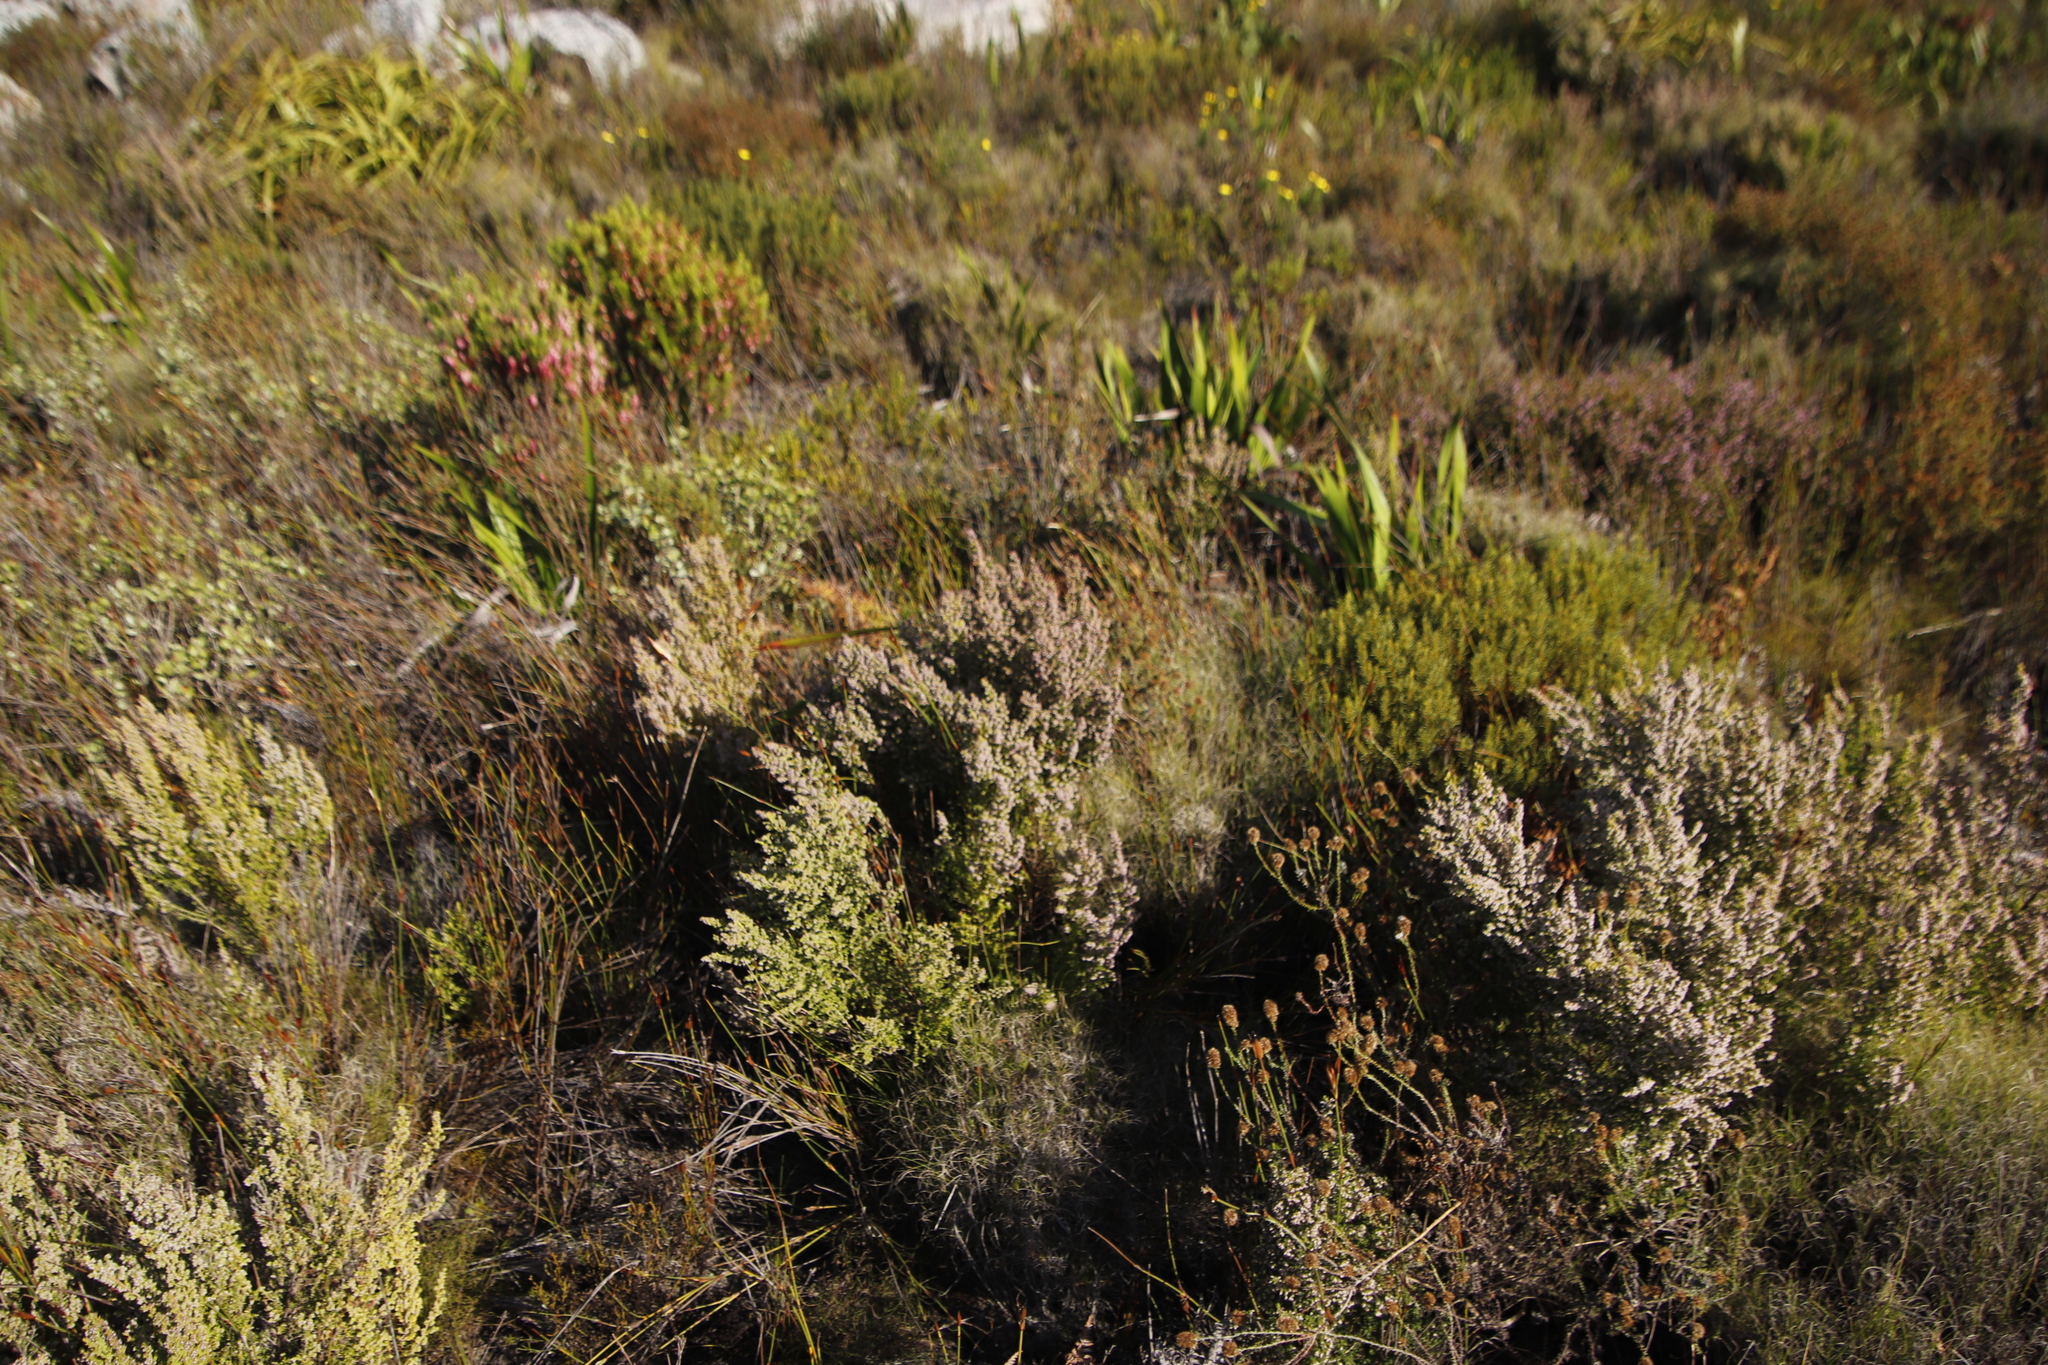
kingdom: Plantae
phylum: Tracheophyta
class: Magnoliopsida
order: Ericales
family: Ericaceae
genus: Erica
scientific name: Erica hispidula
